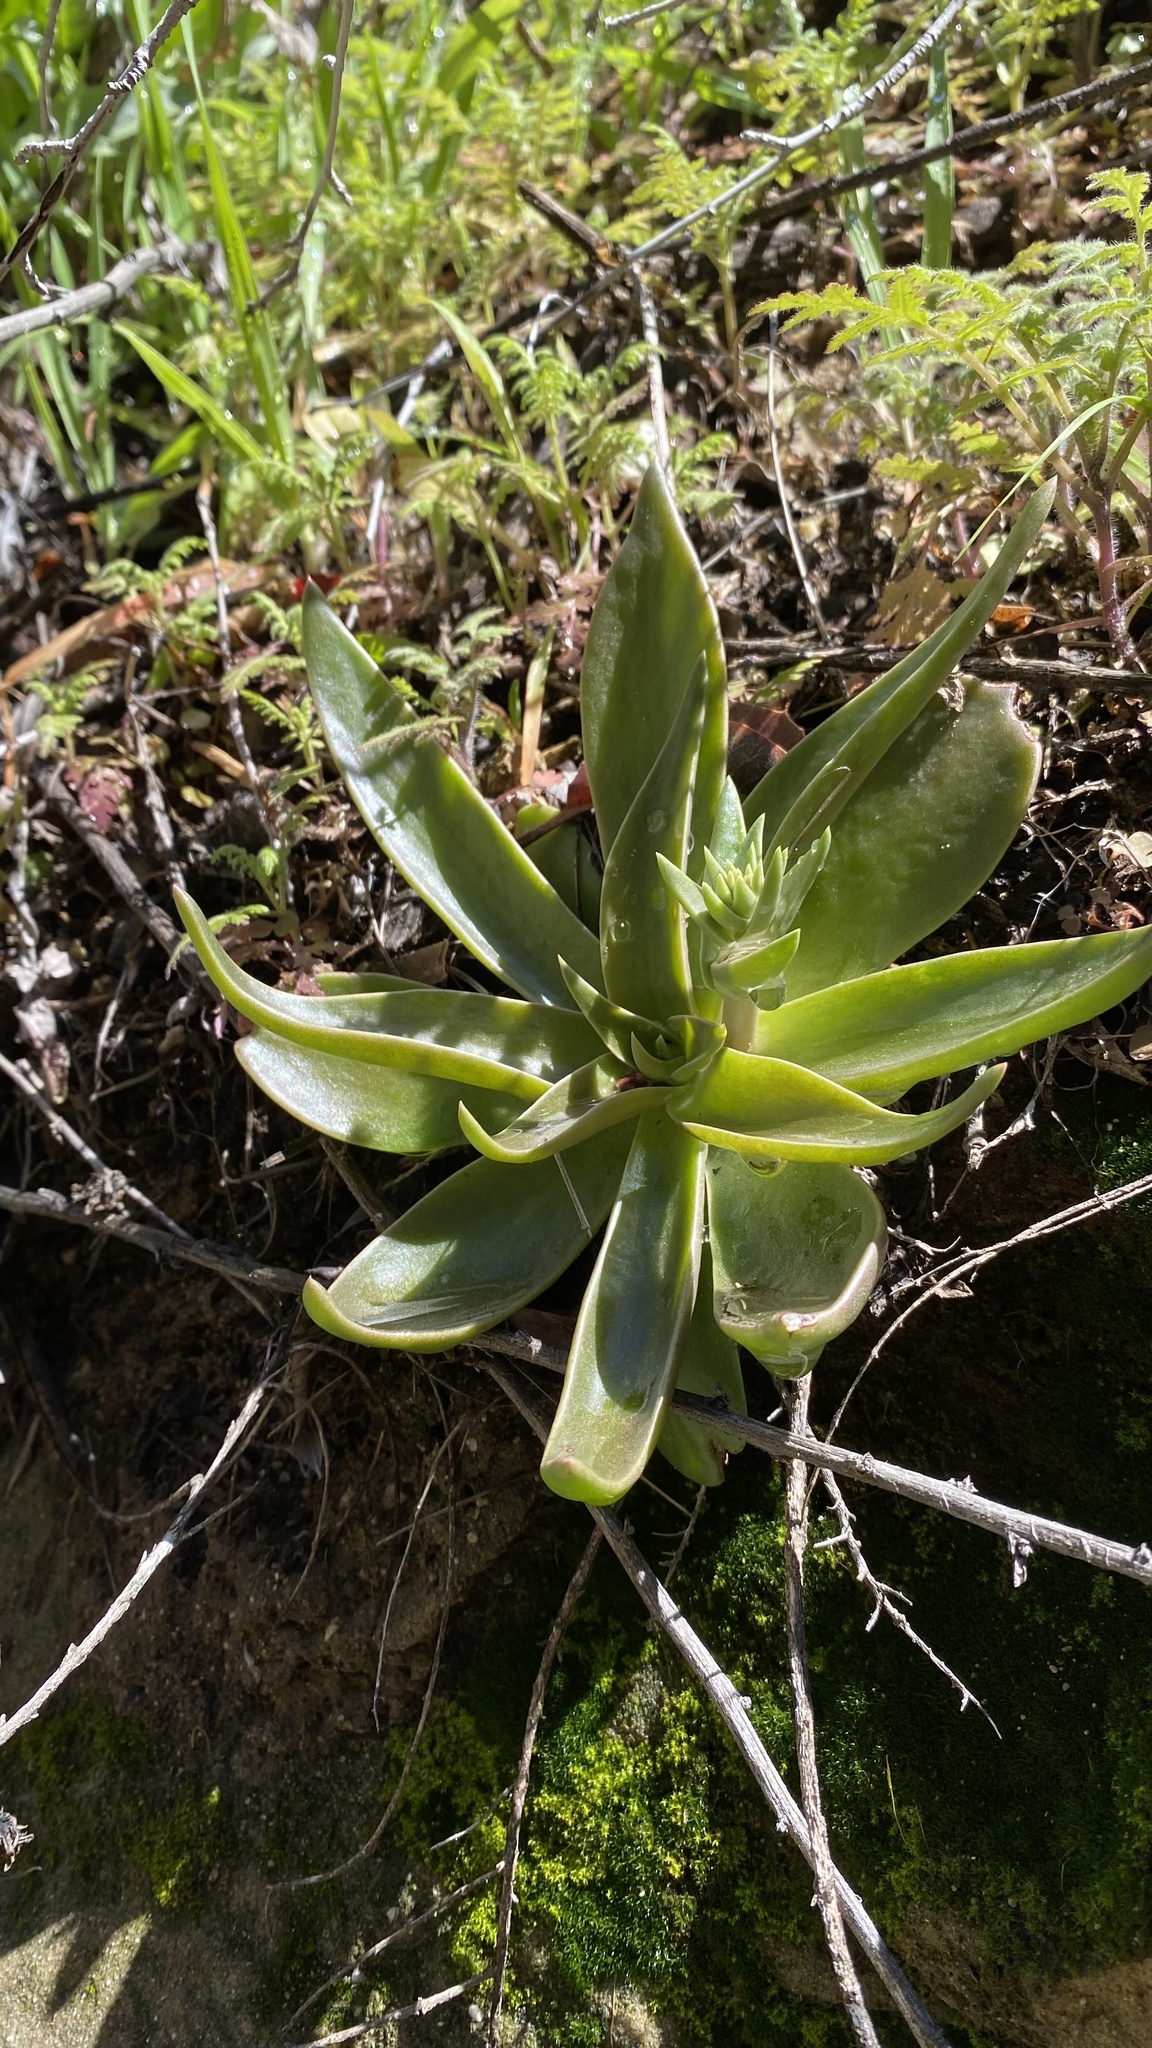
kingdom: Plantae
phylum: Tracheophyta
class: Magnoliopsida
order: Saxifragales
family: Crassulaceae
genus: Dudleya
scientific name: Dudleya lanceolata
